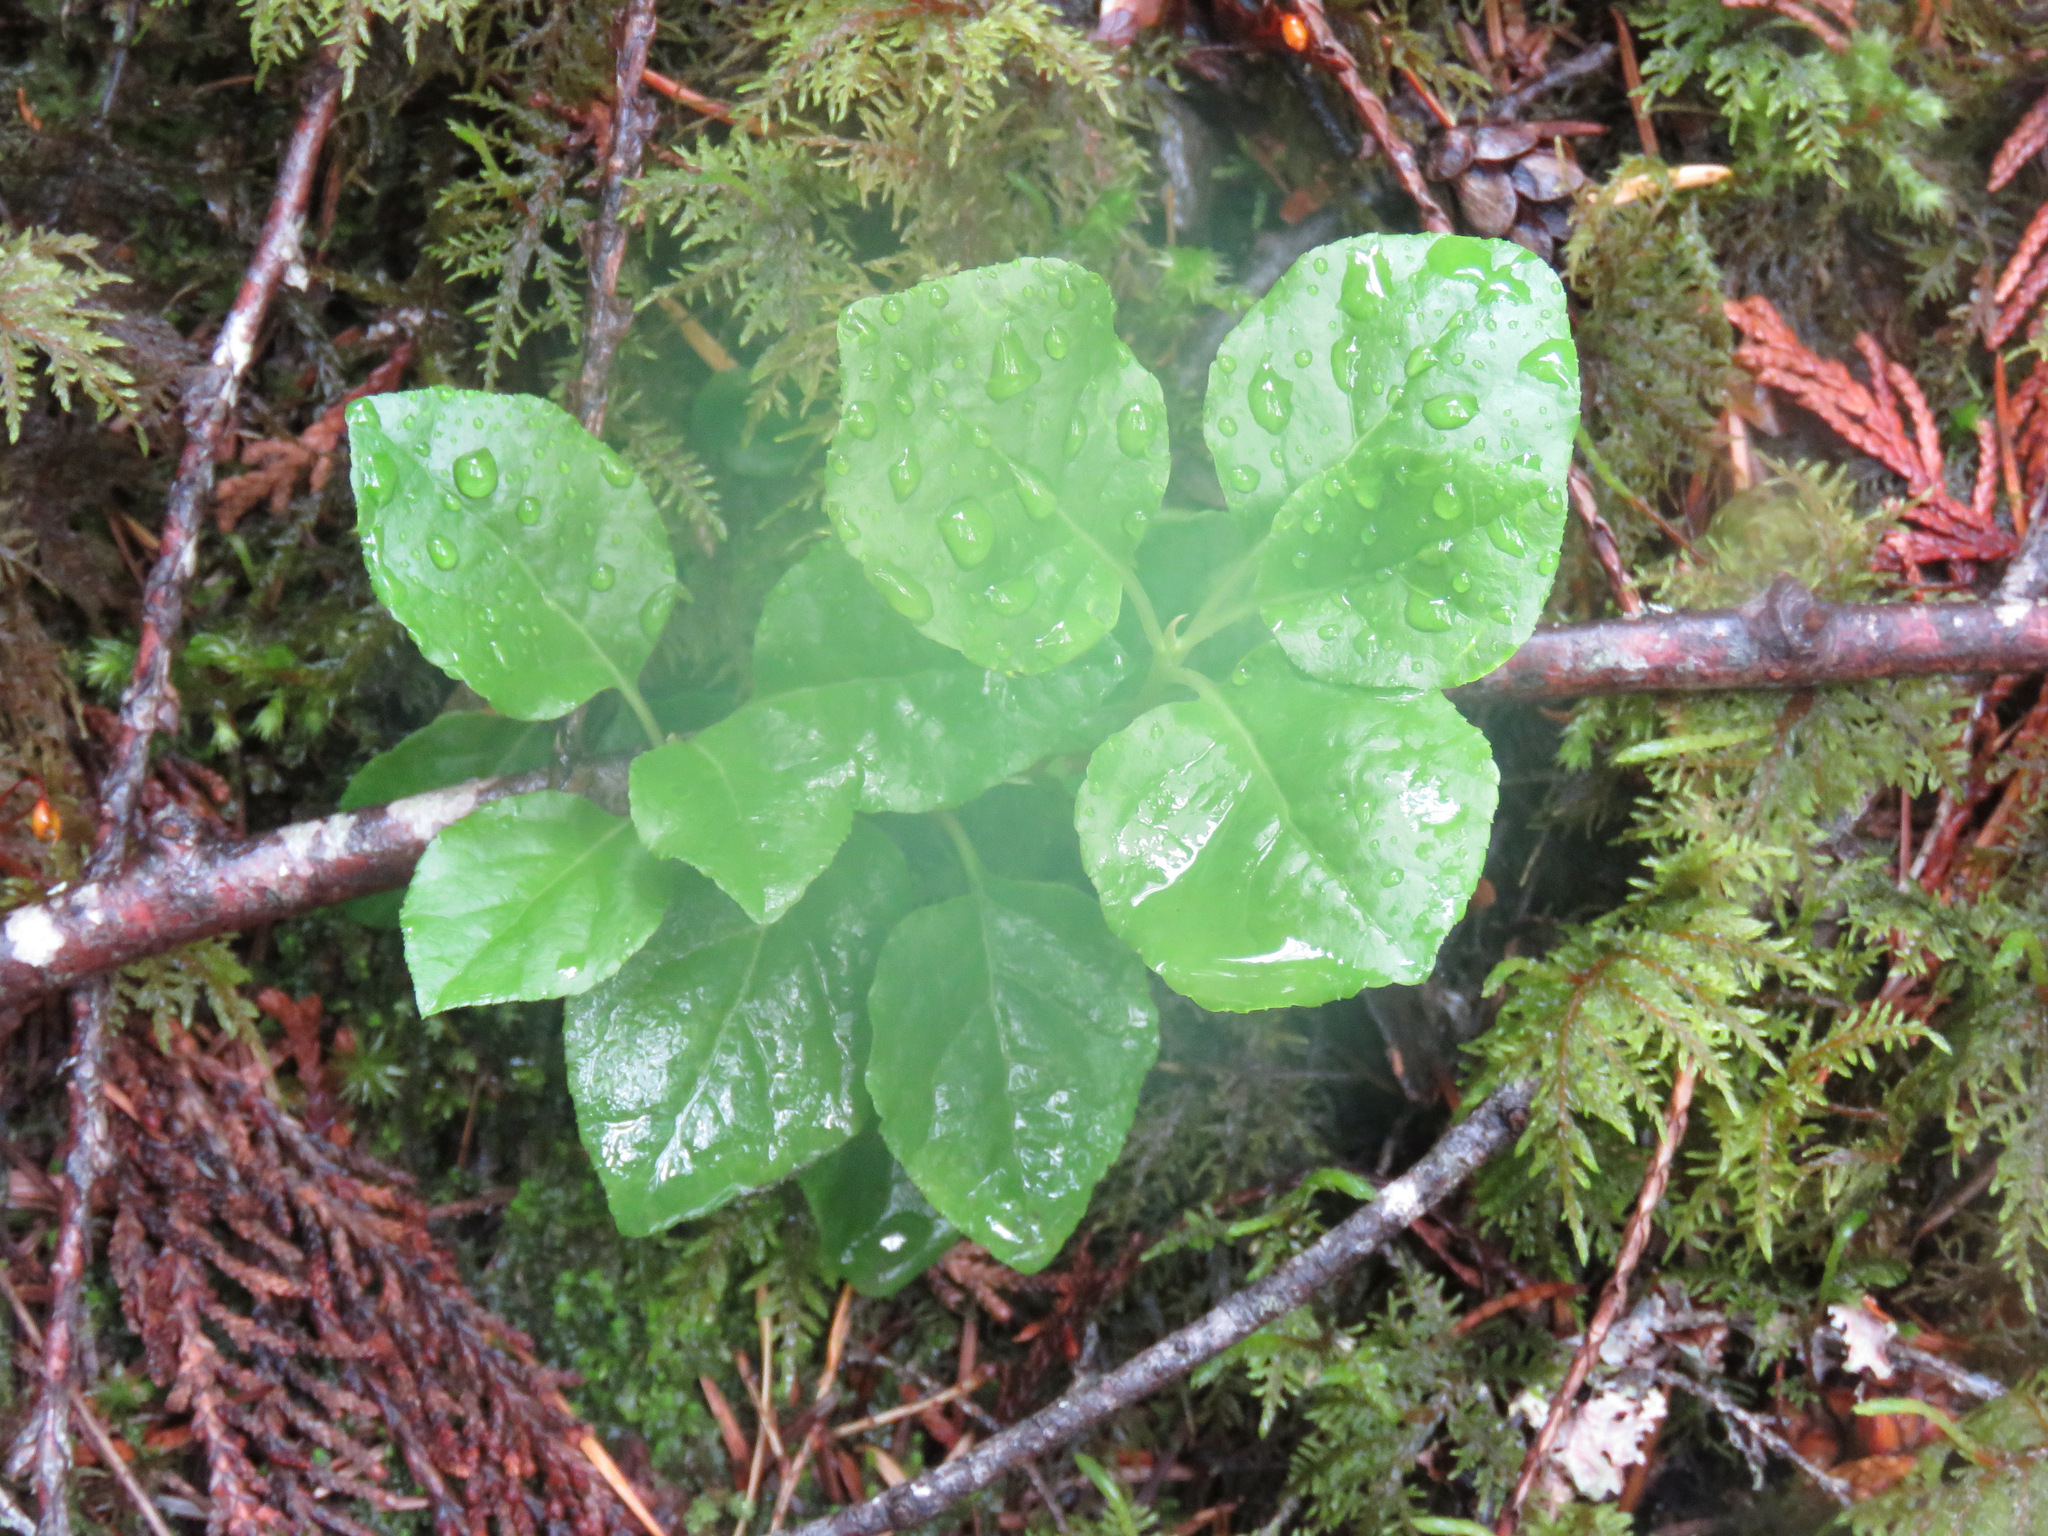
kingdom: Plantae
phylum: Tracheophyta
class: Magnoliopsida
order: Ericales
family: Ericaceae
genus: Orthilia
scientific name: Orthilia secunda
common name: One-sided orthilia
